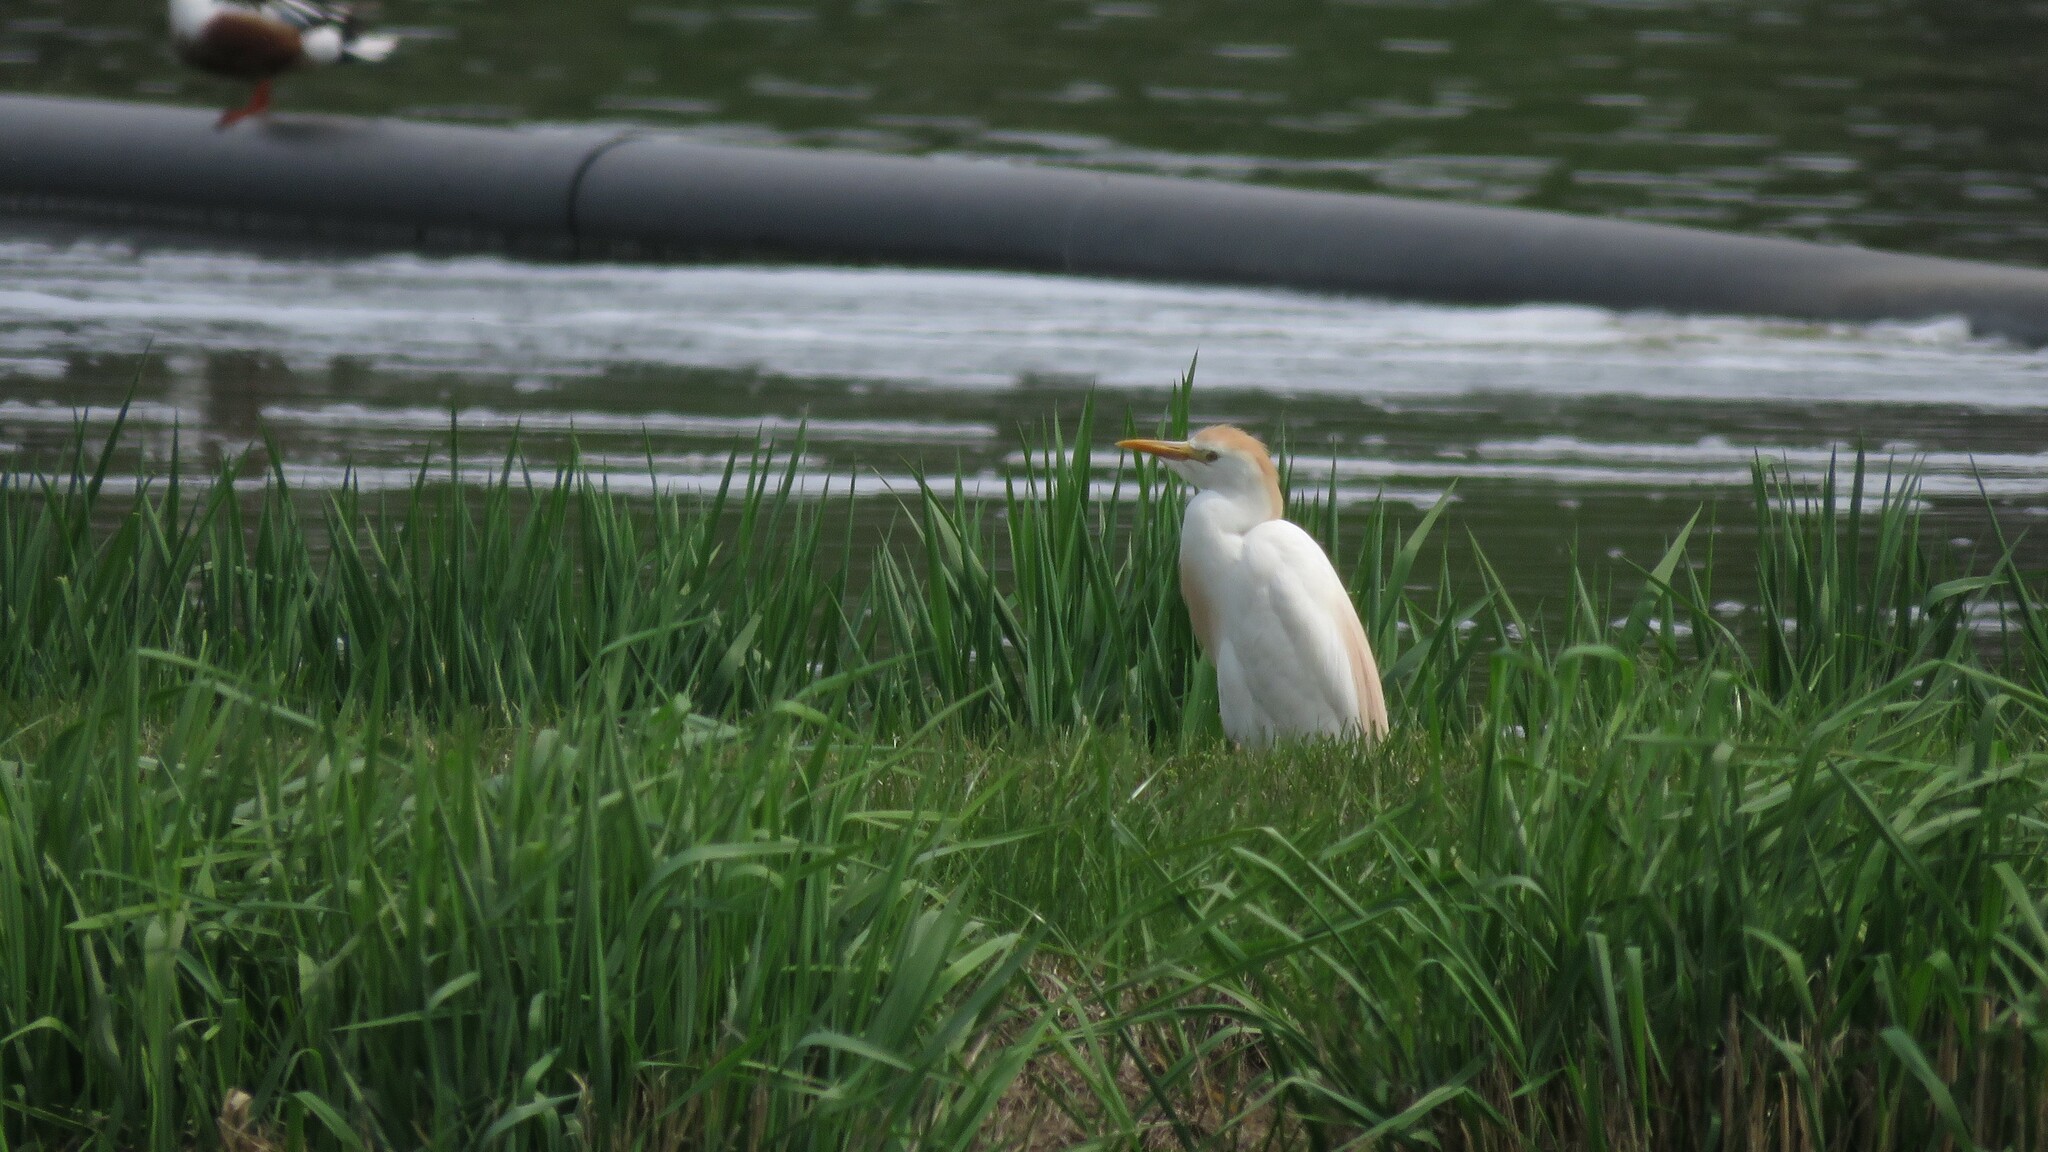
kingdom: Animalia
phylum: Chordata
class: Aves
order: Pelecaniformes
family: Ardeidae
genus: Bubulcus
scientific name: Bubulcus ibis
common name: Cattle egret
